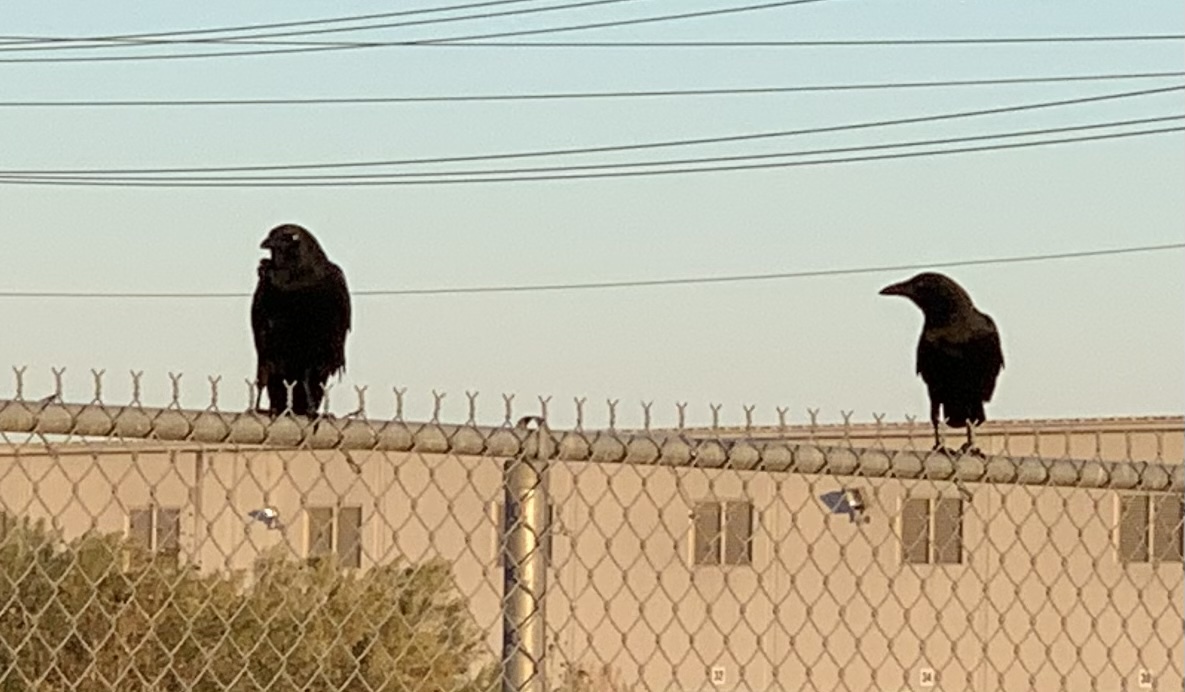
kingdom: Animalia
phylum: Chordata
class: Aves
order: Passeriformes
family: Corvidae
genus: Corvus
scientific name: Corvus brachyrhynchos
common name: American crow
